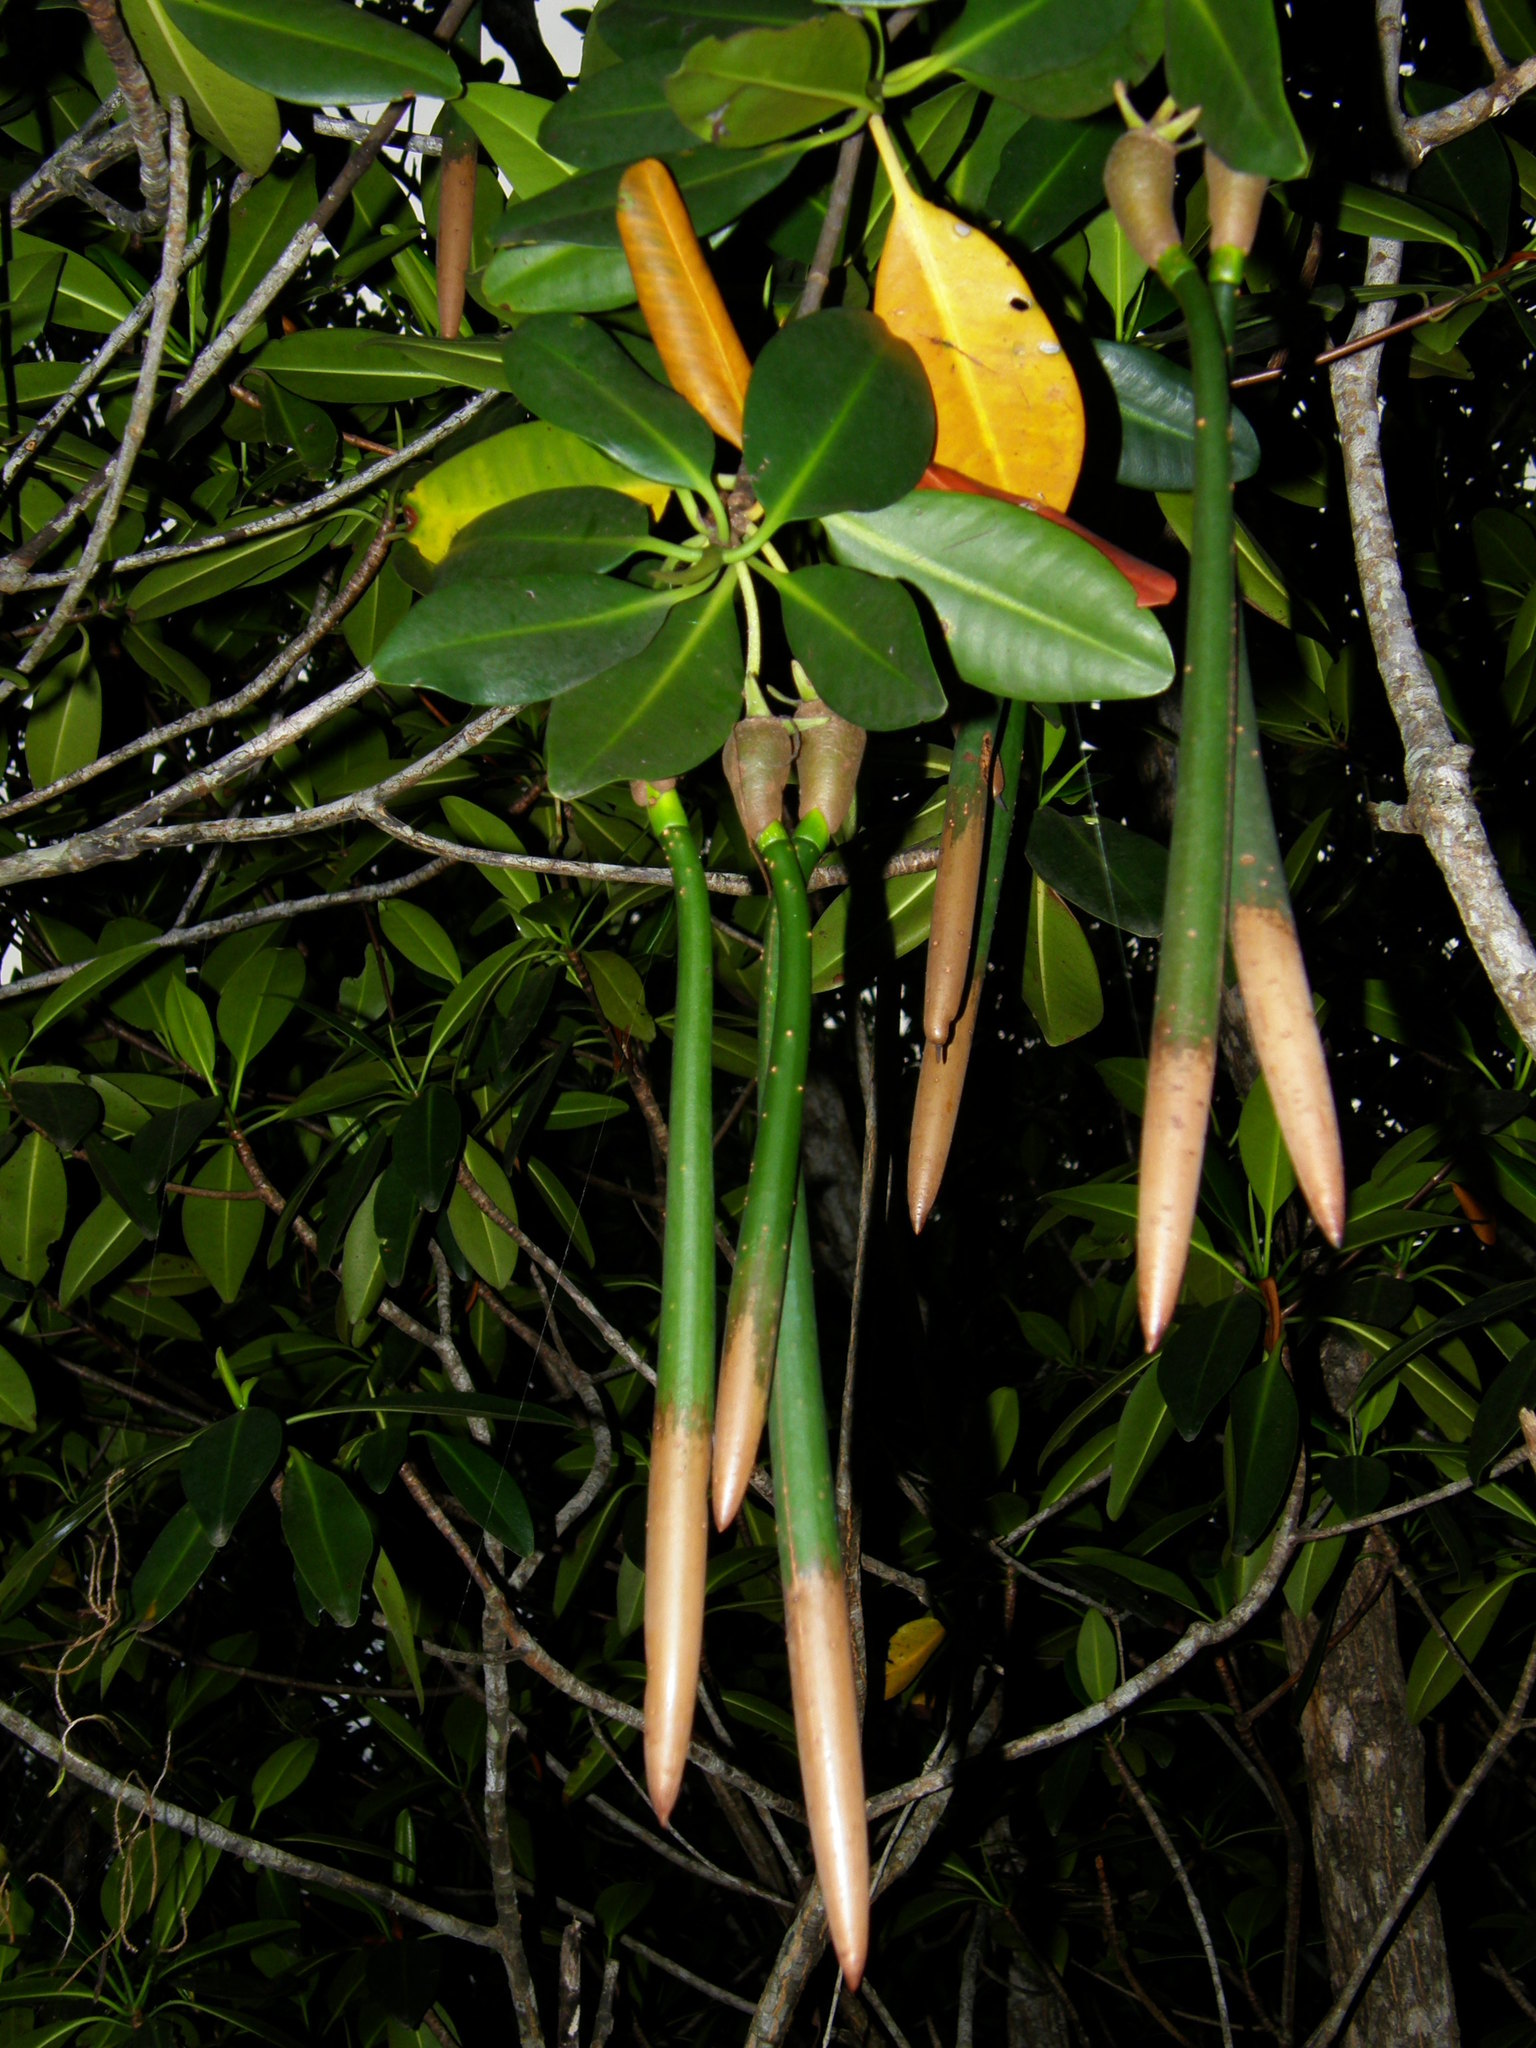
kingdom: Plantae
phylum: Tracheophyta
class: Magnoliopsida
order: Malpighiales
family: Rhizophoraceae
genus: Rhizophora
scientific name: Rhizophora mangle
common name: Red mangrove
